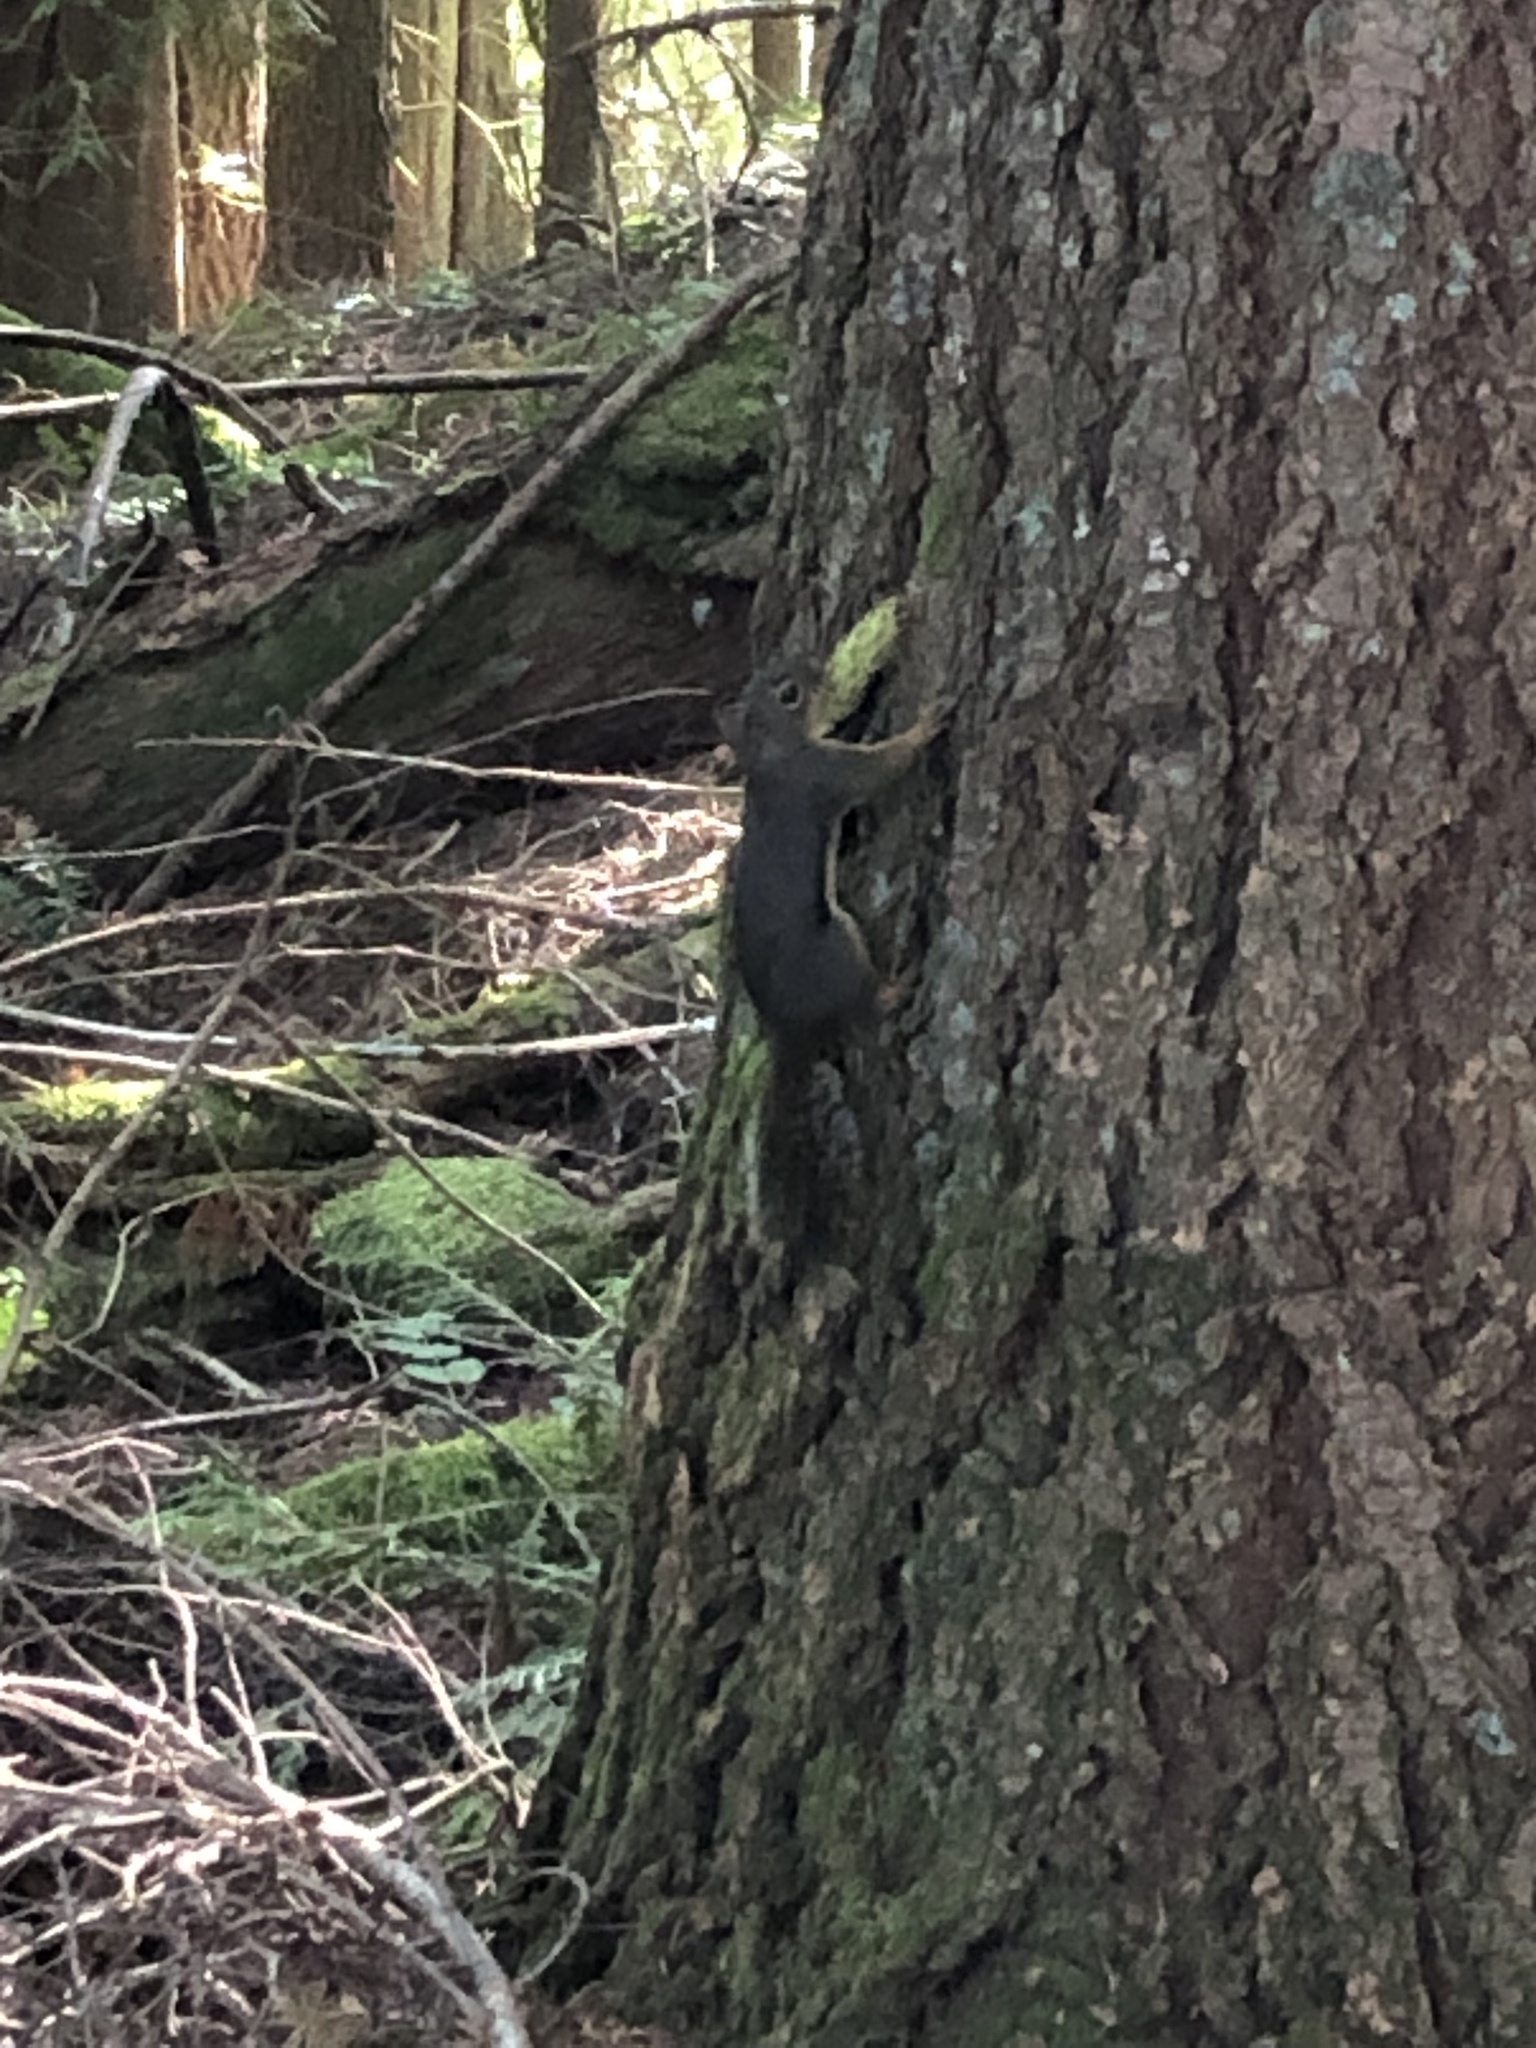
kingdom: Animalia
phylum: Chordata
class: Mammalia
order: Rodentia
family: Sciuridae
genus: Tamiasciurus
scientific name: Tamiasciurus douglasii
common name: Douglas's squirrel
